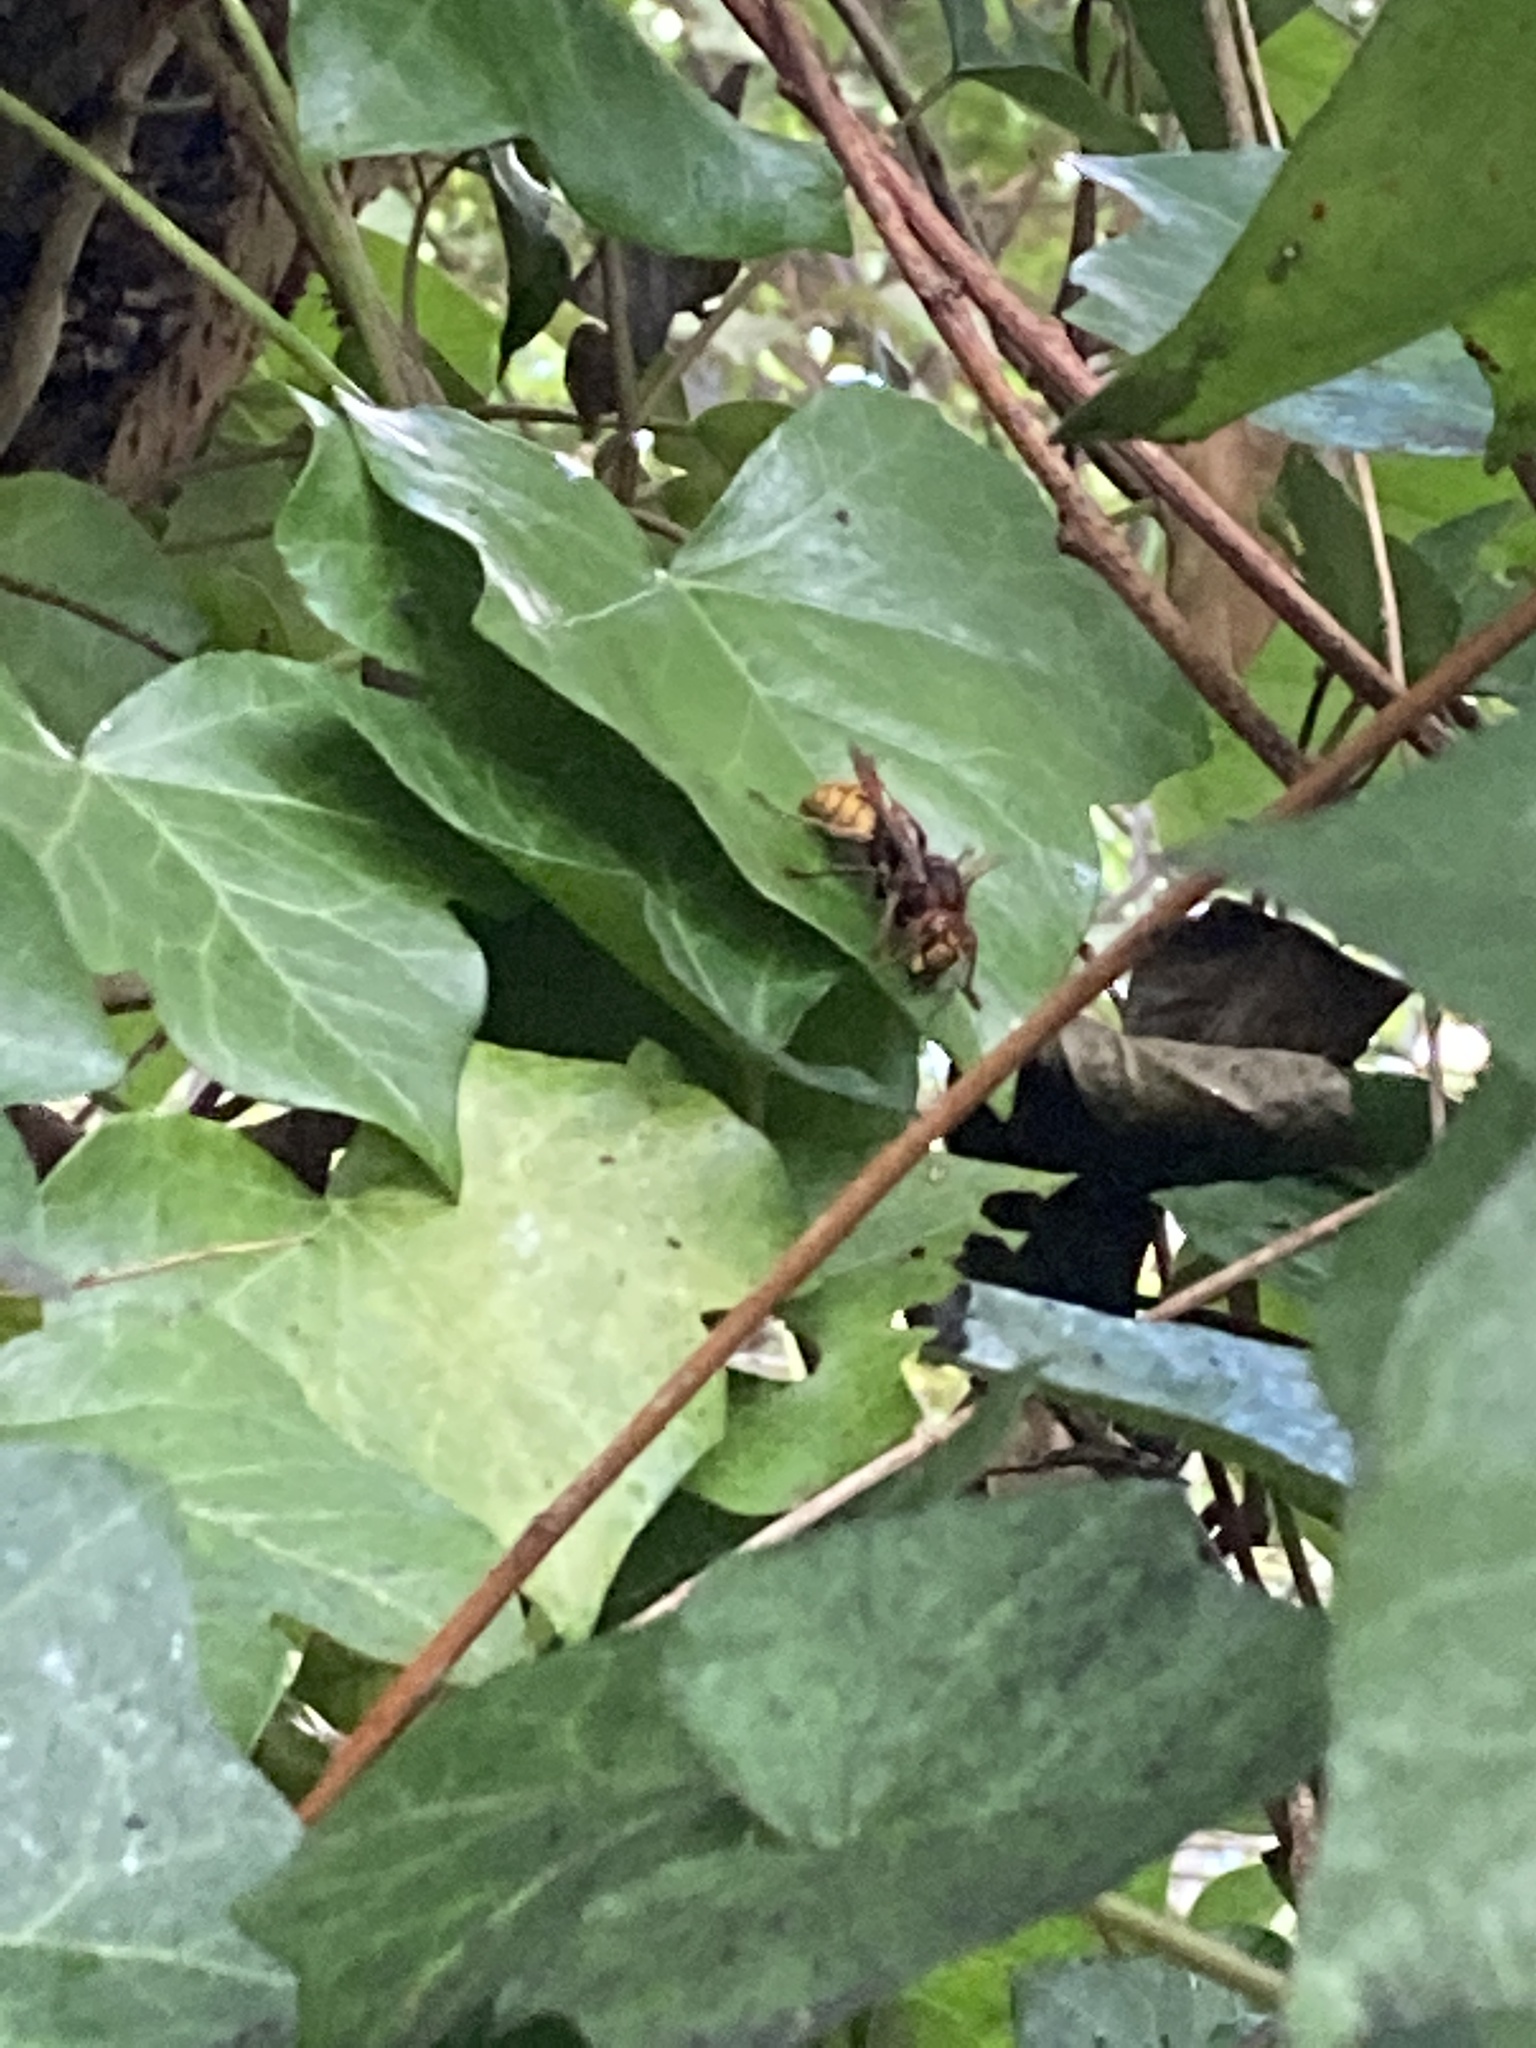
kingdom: Animalia
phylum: Arthropoda
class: Insecta
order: Hymenoptera
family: Vespidae
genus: Vespa
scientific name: Vespa velutina
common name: Asian hornet
